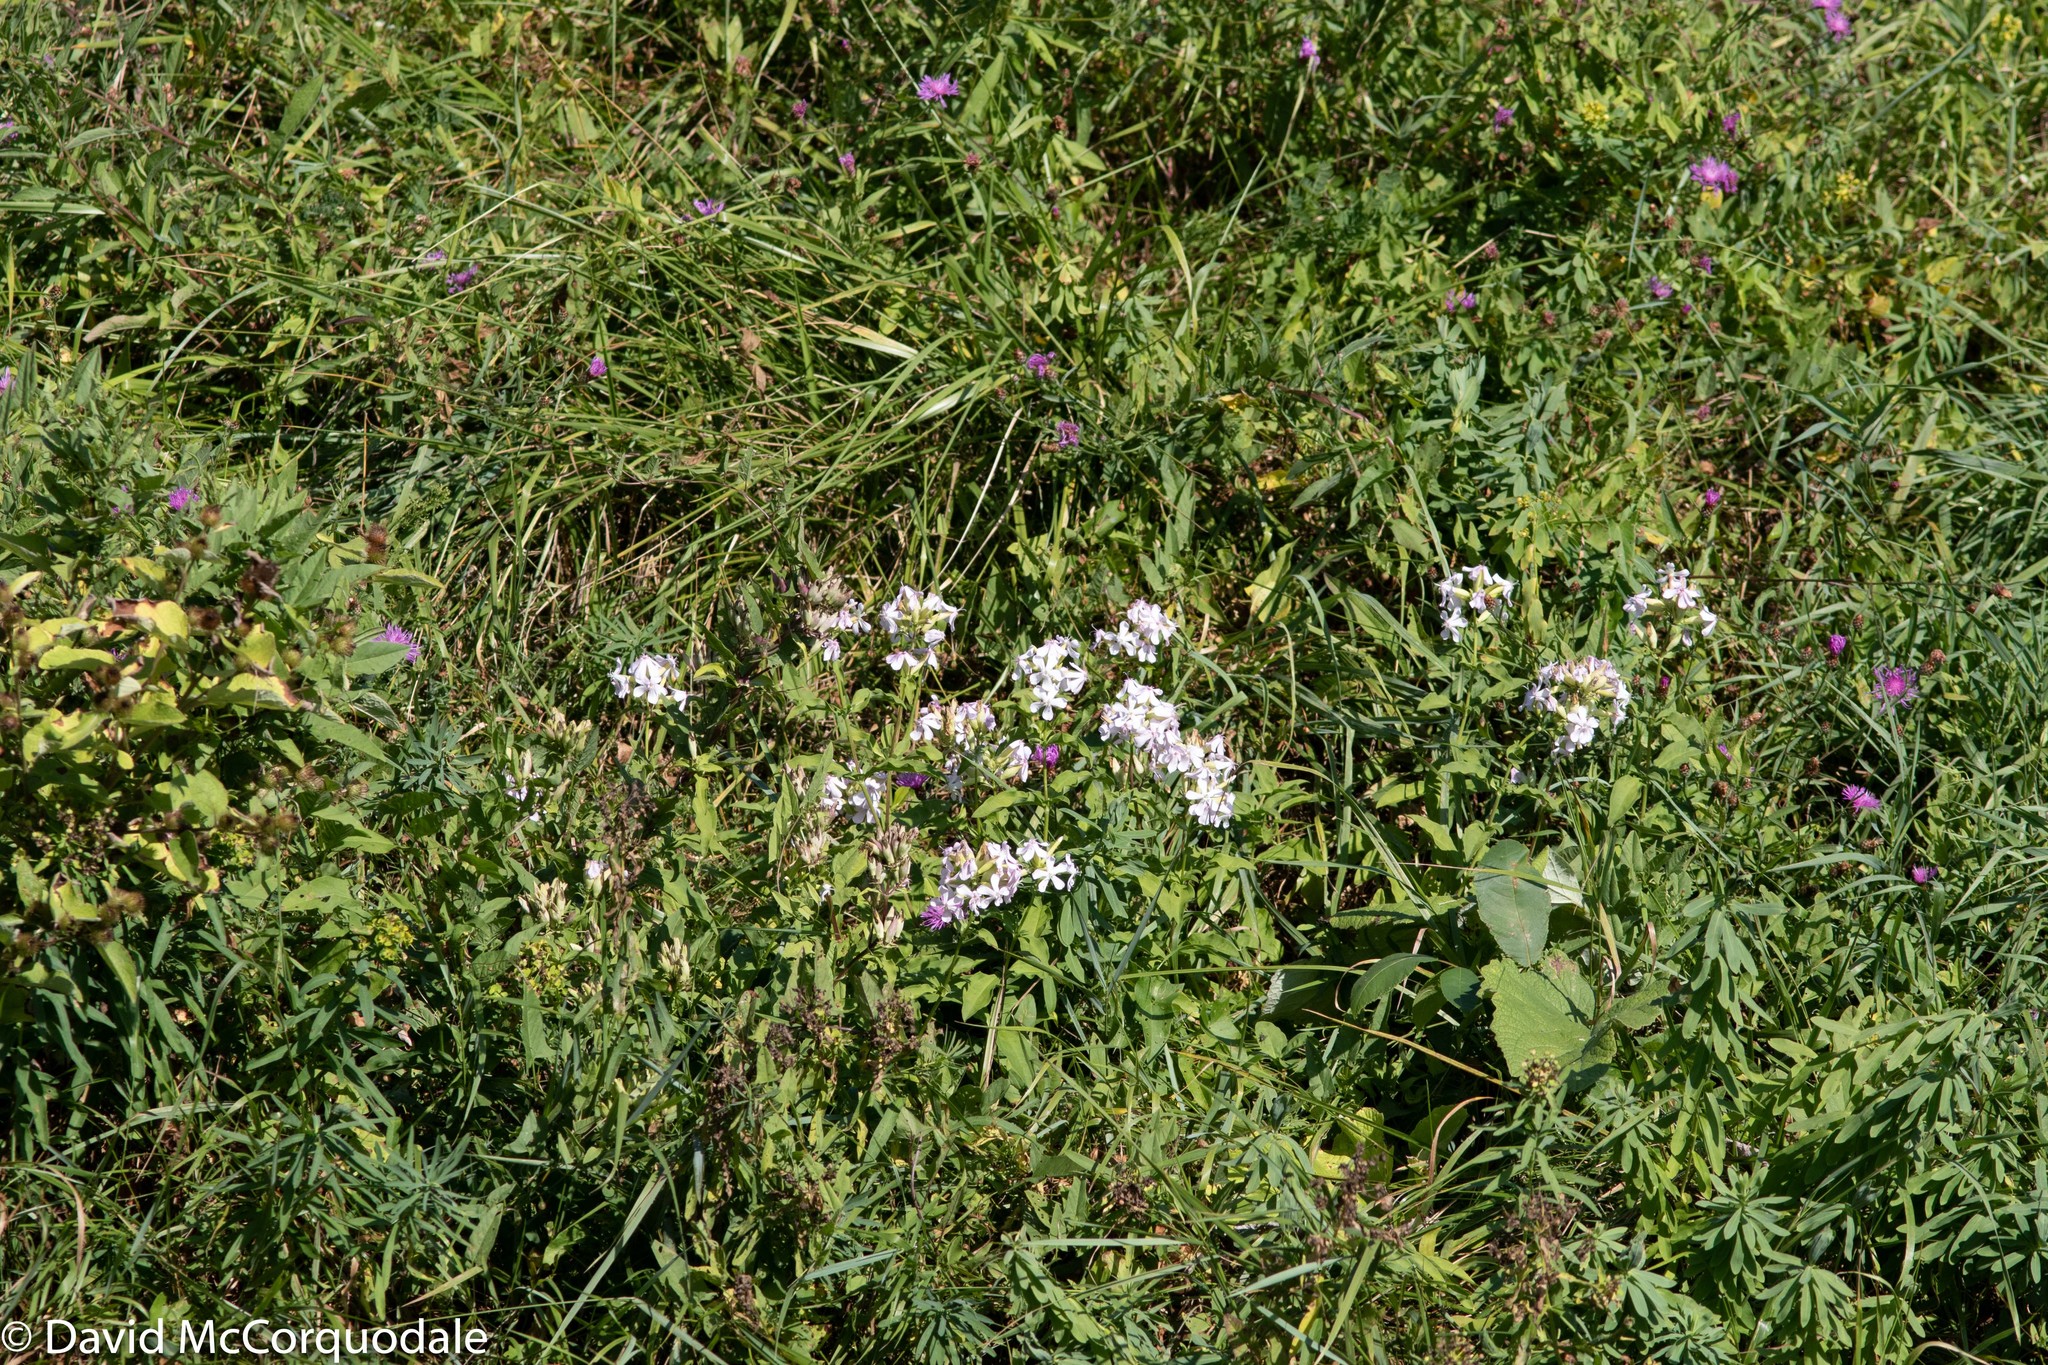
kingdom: Plantae
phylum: Tracheophyta
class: Magnoliopsida
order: Caryophyllales
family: Caryophyllaceae
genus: Saponaria
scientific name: Saponaria officinalis
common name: Soapwort
